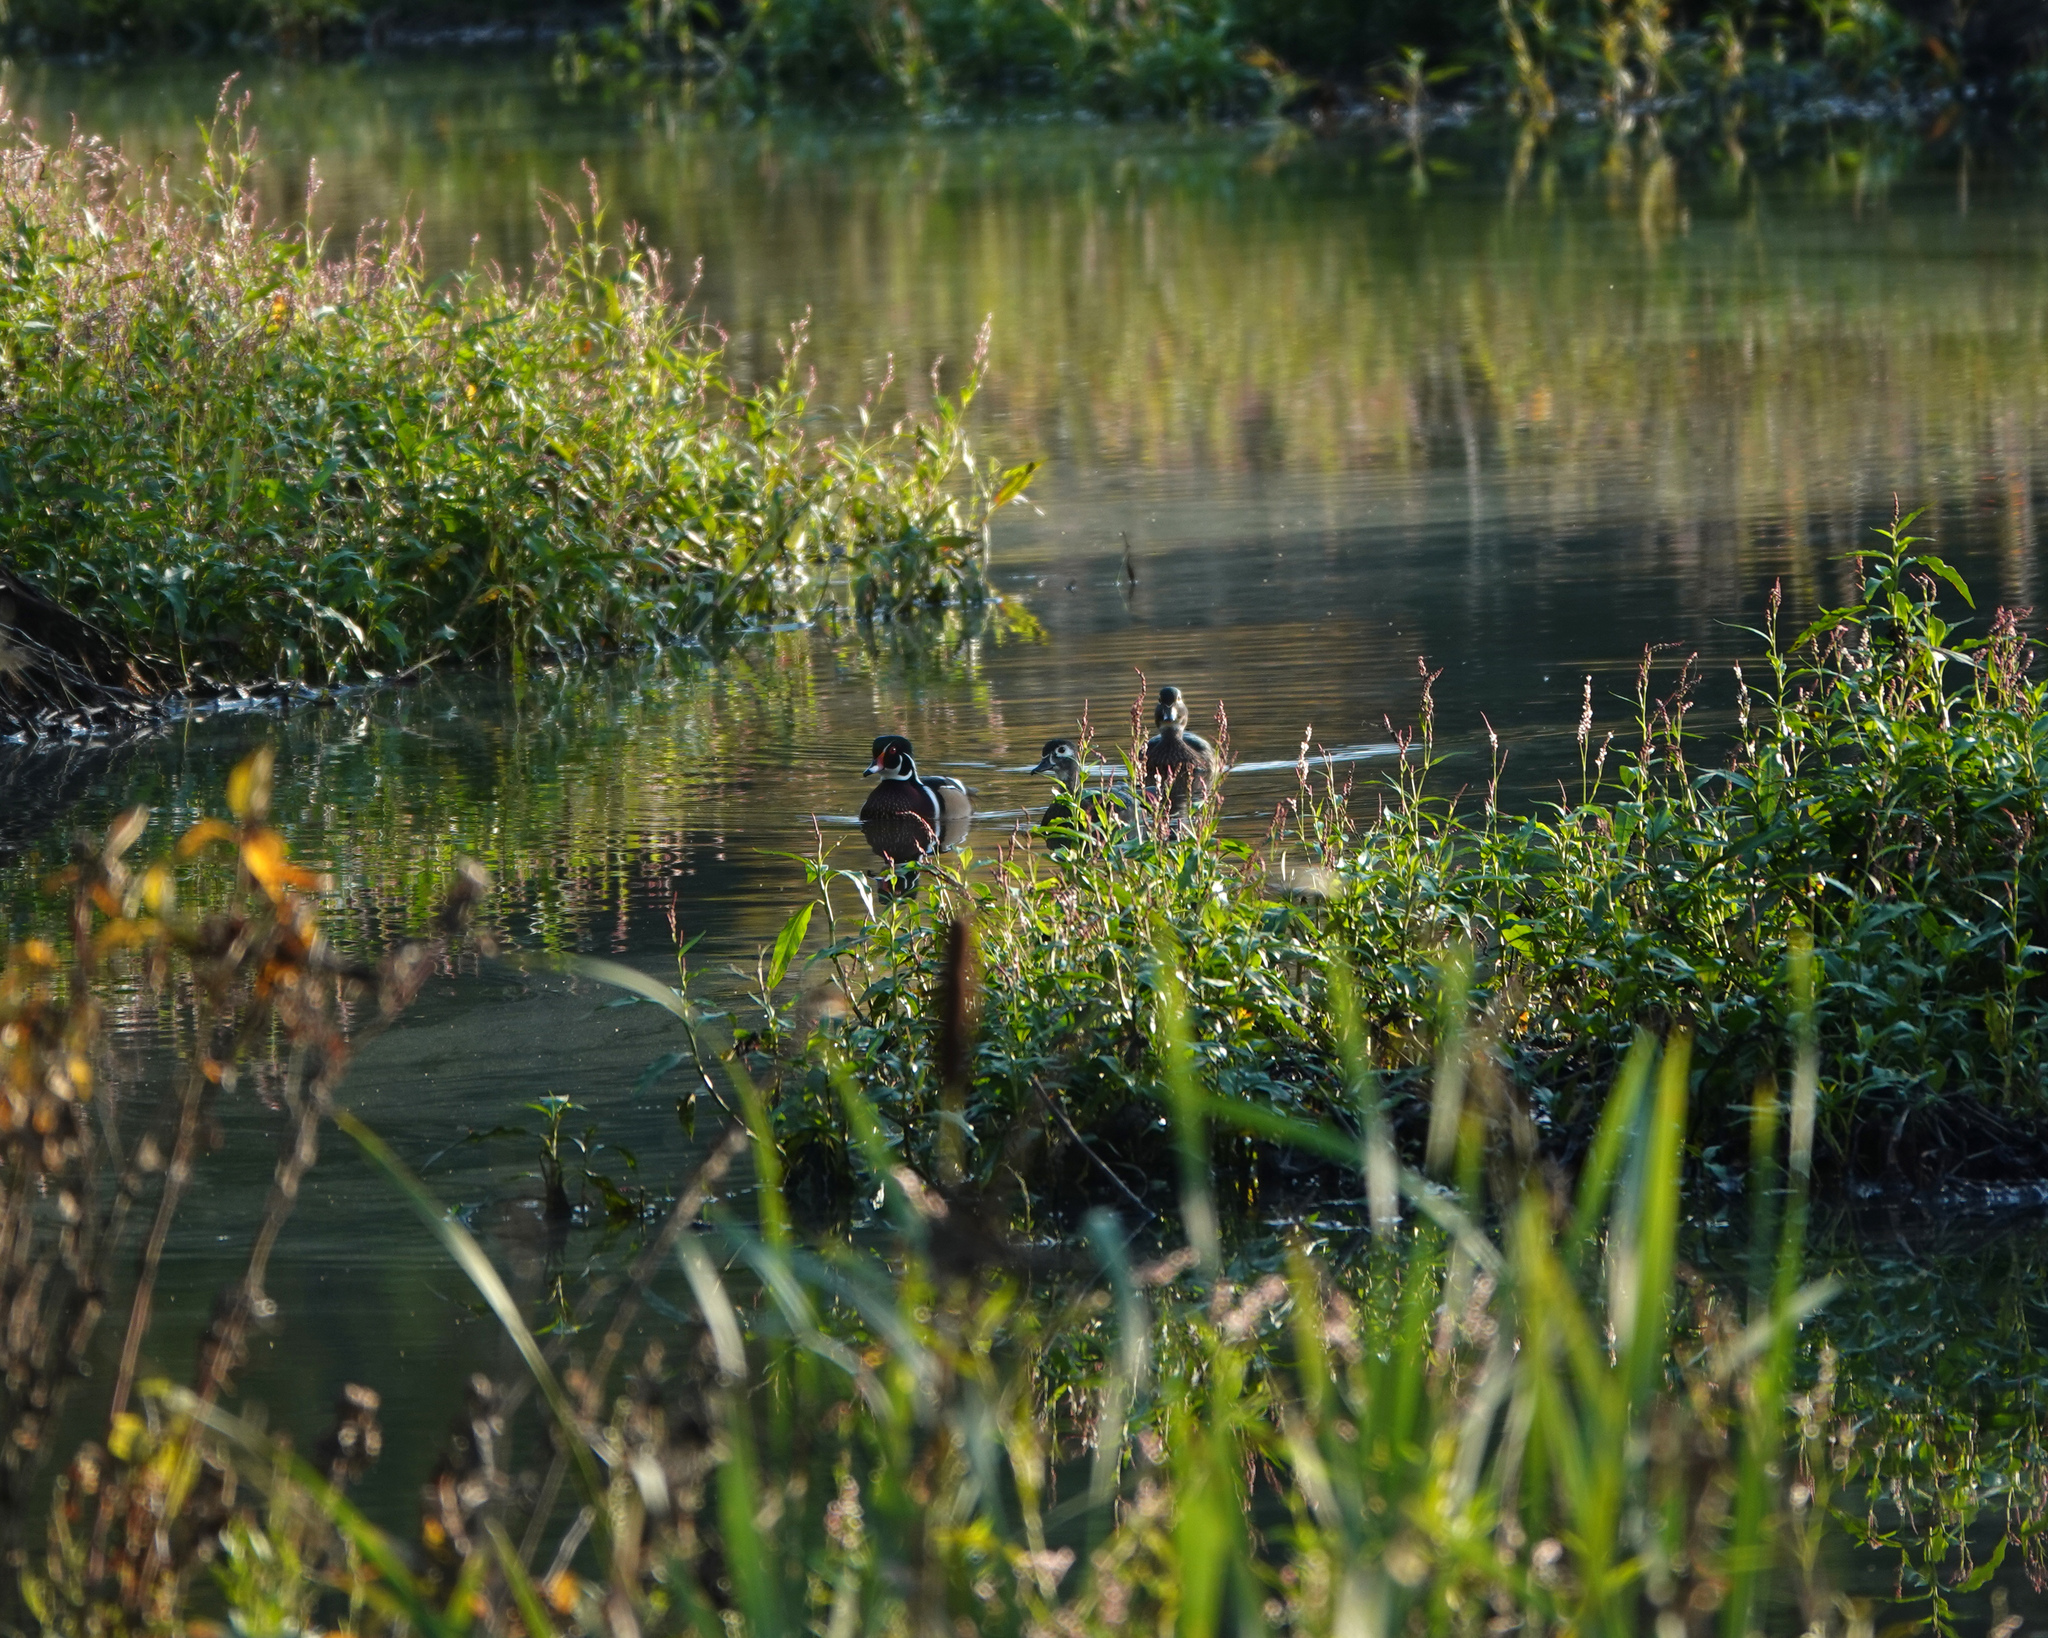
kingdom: Animalia
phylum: Chordata
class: Aves
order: Anseriformes
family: Anatidae
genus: Aix
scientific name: Aix sponsa
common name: Wood duck
